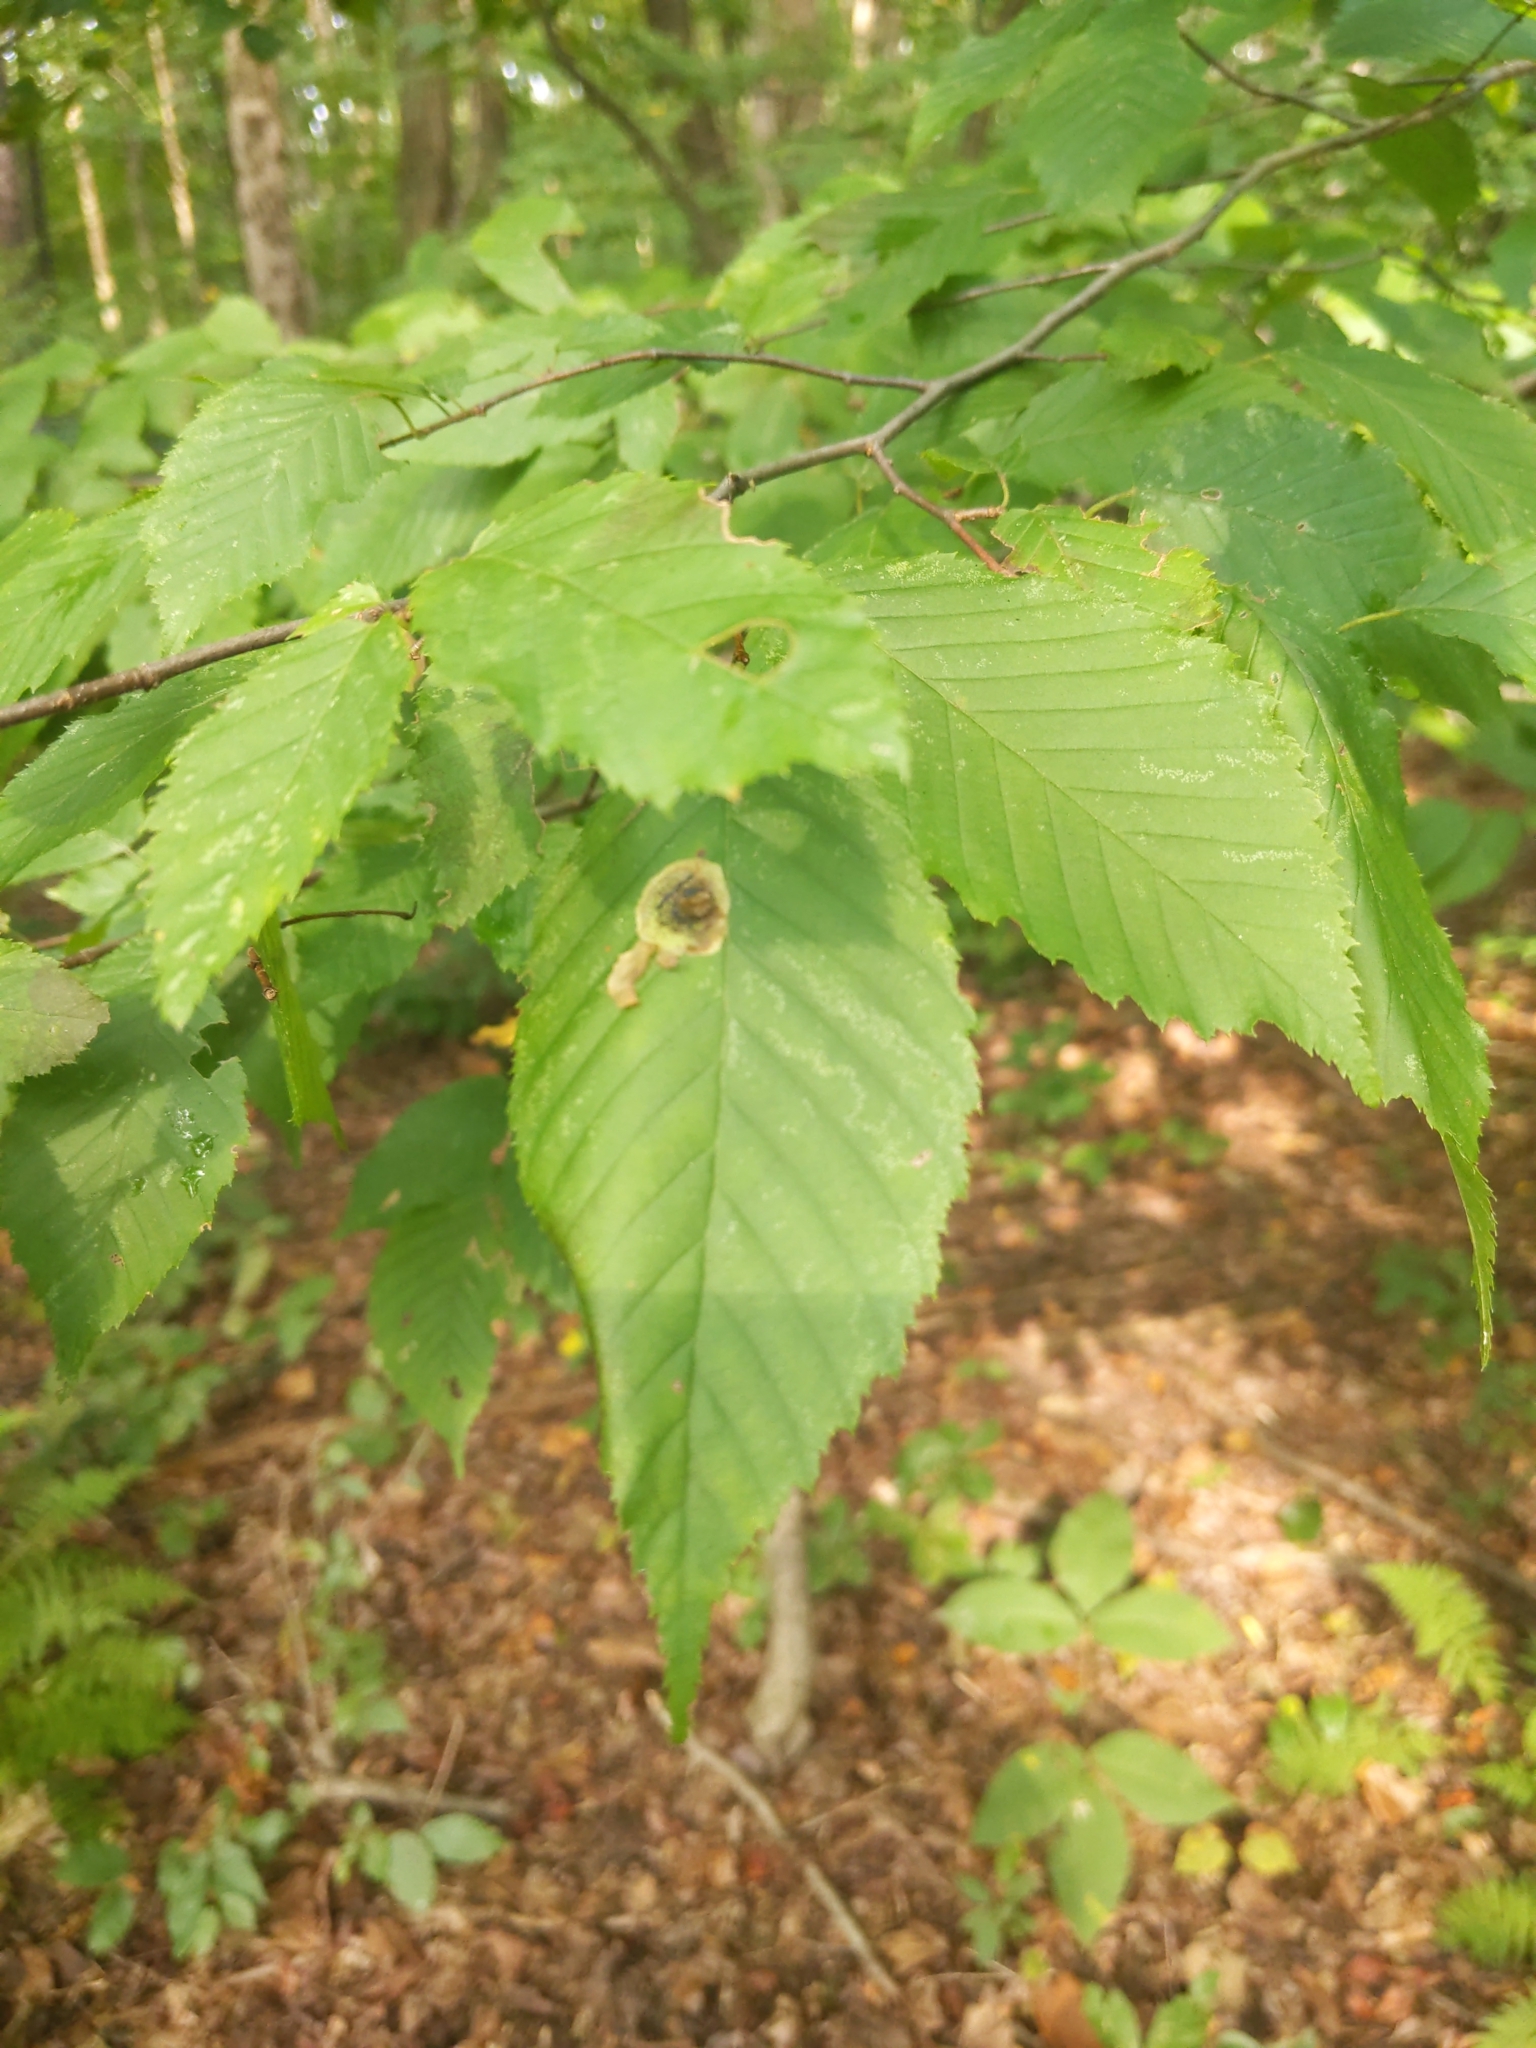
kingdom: Animalia
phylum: Arthropoda
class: Insecta
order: Lepidoptera
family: Gracillariidae
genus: Cameraria
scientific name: Cameraria betulivora
